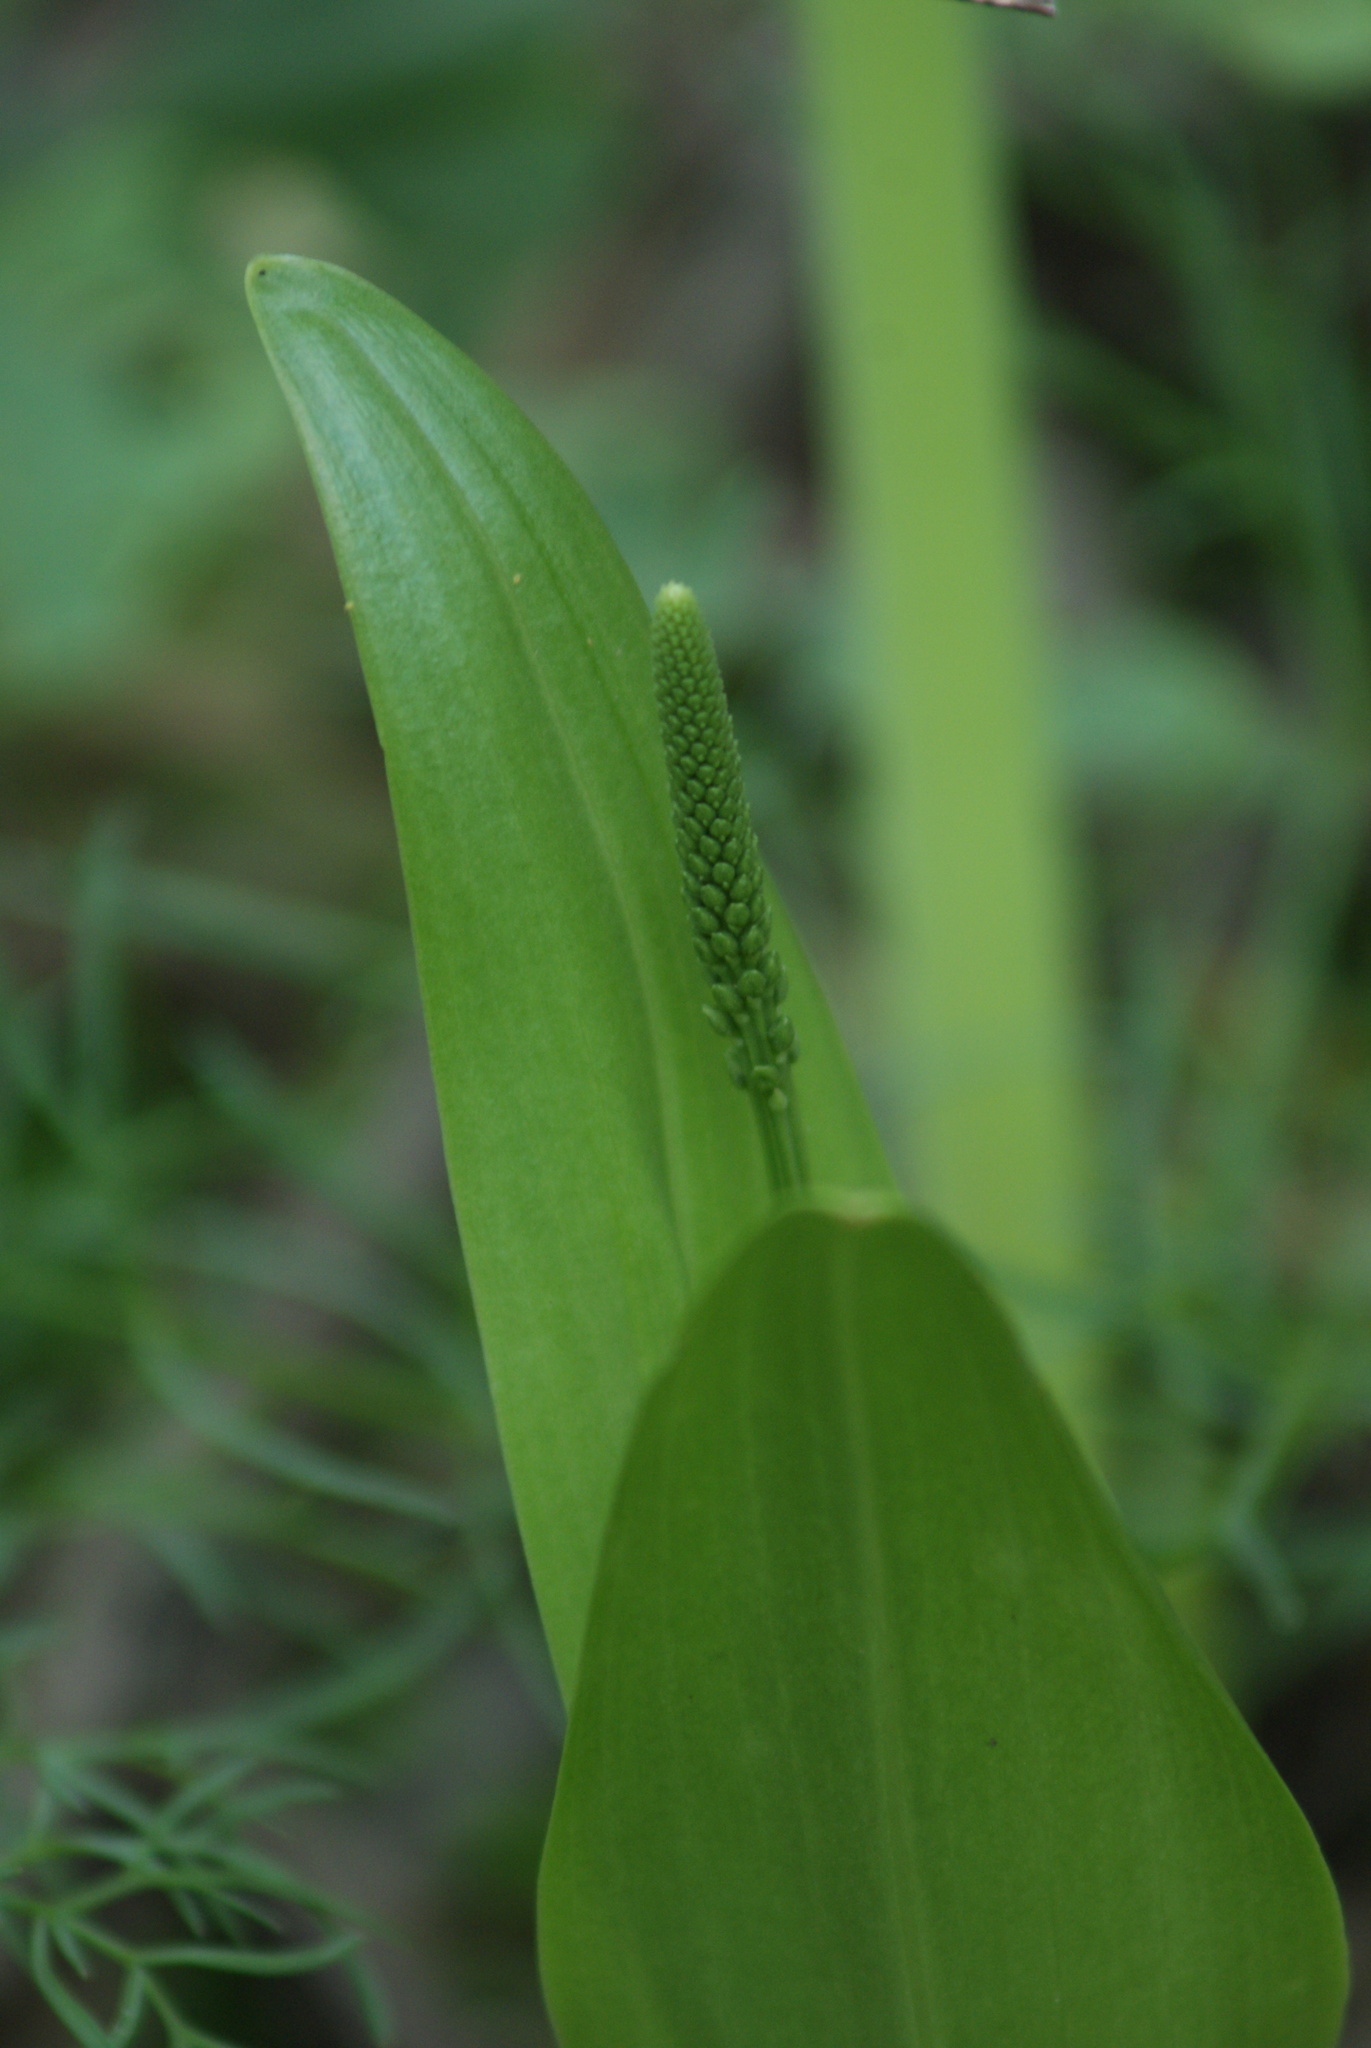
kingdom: Plantae
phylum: Tracheophyta
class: Liliopsida
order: Asparagales
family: Orchidaceae
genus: Malaxis
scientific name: Malaxis myurus
